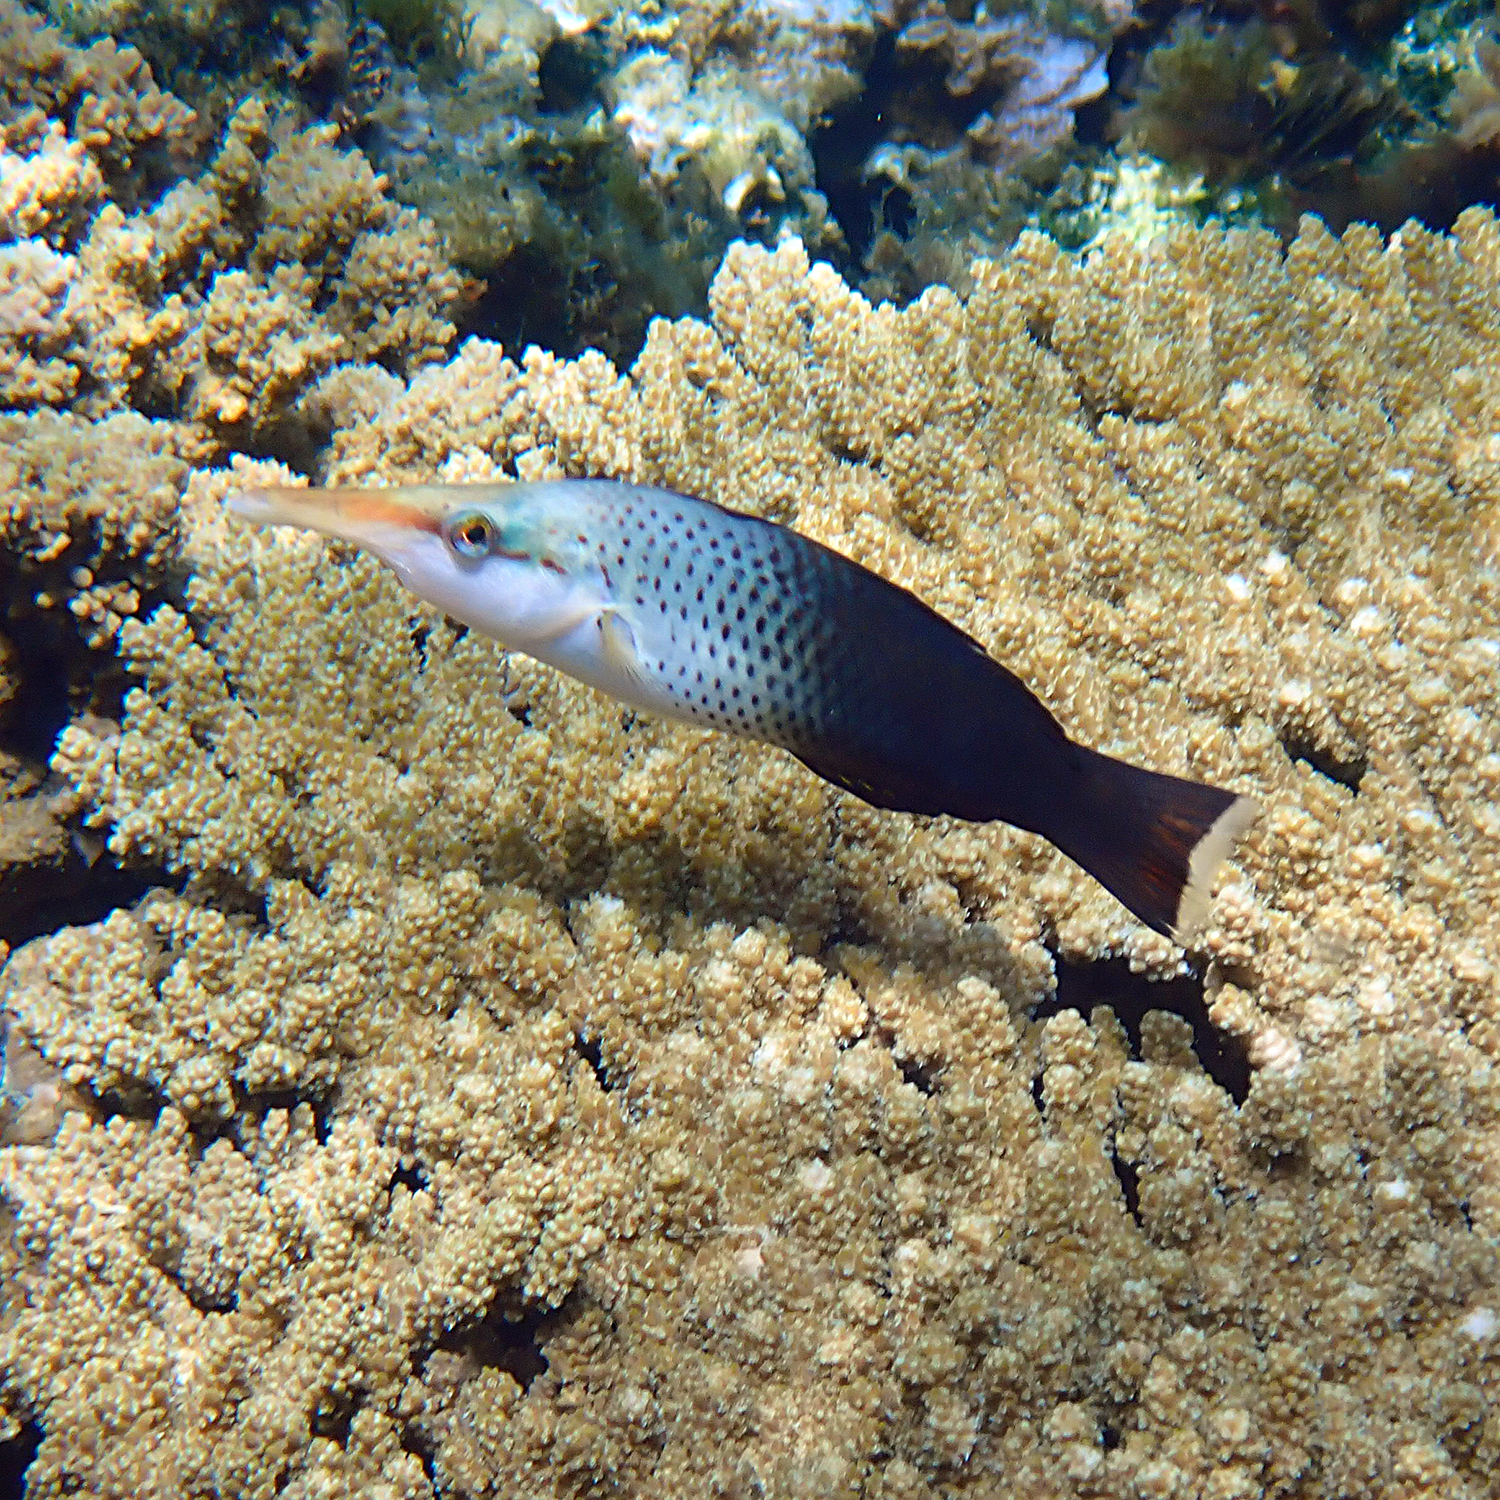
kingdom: Animalia
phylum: Chordata
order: Perciformes
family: Labridae
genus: Gomphosus
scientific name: Gomphosus varius
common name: Bird wrasse
